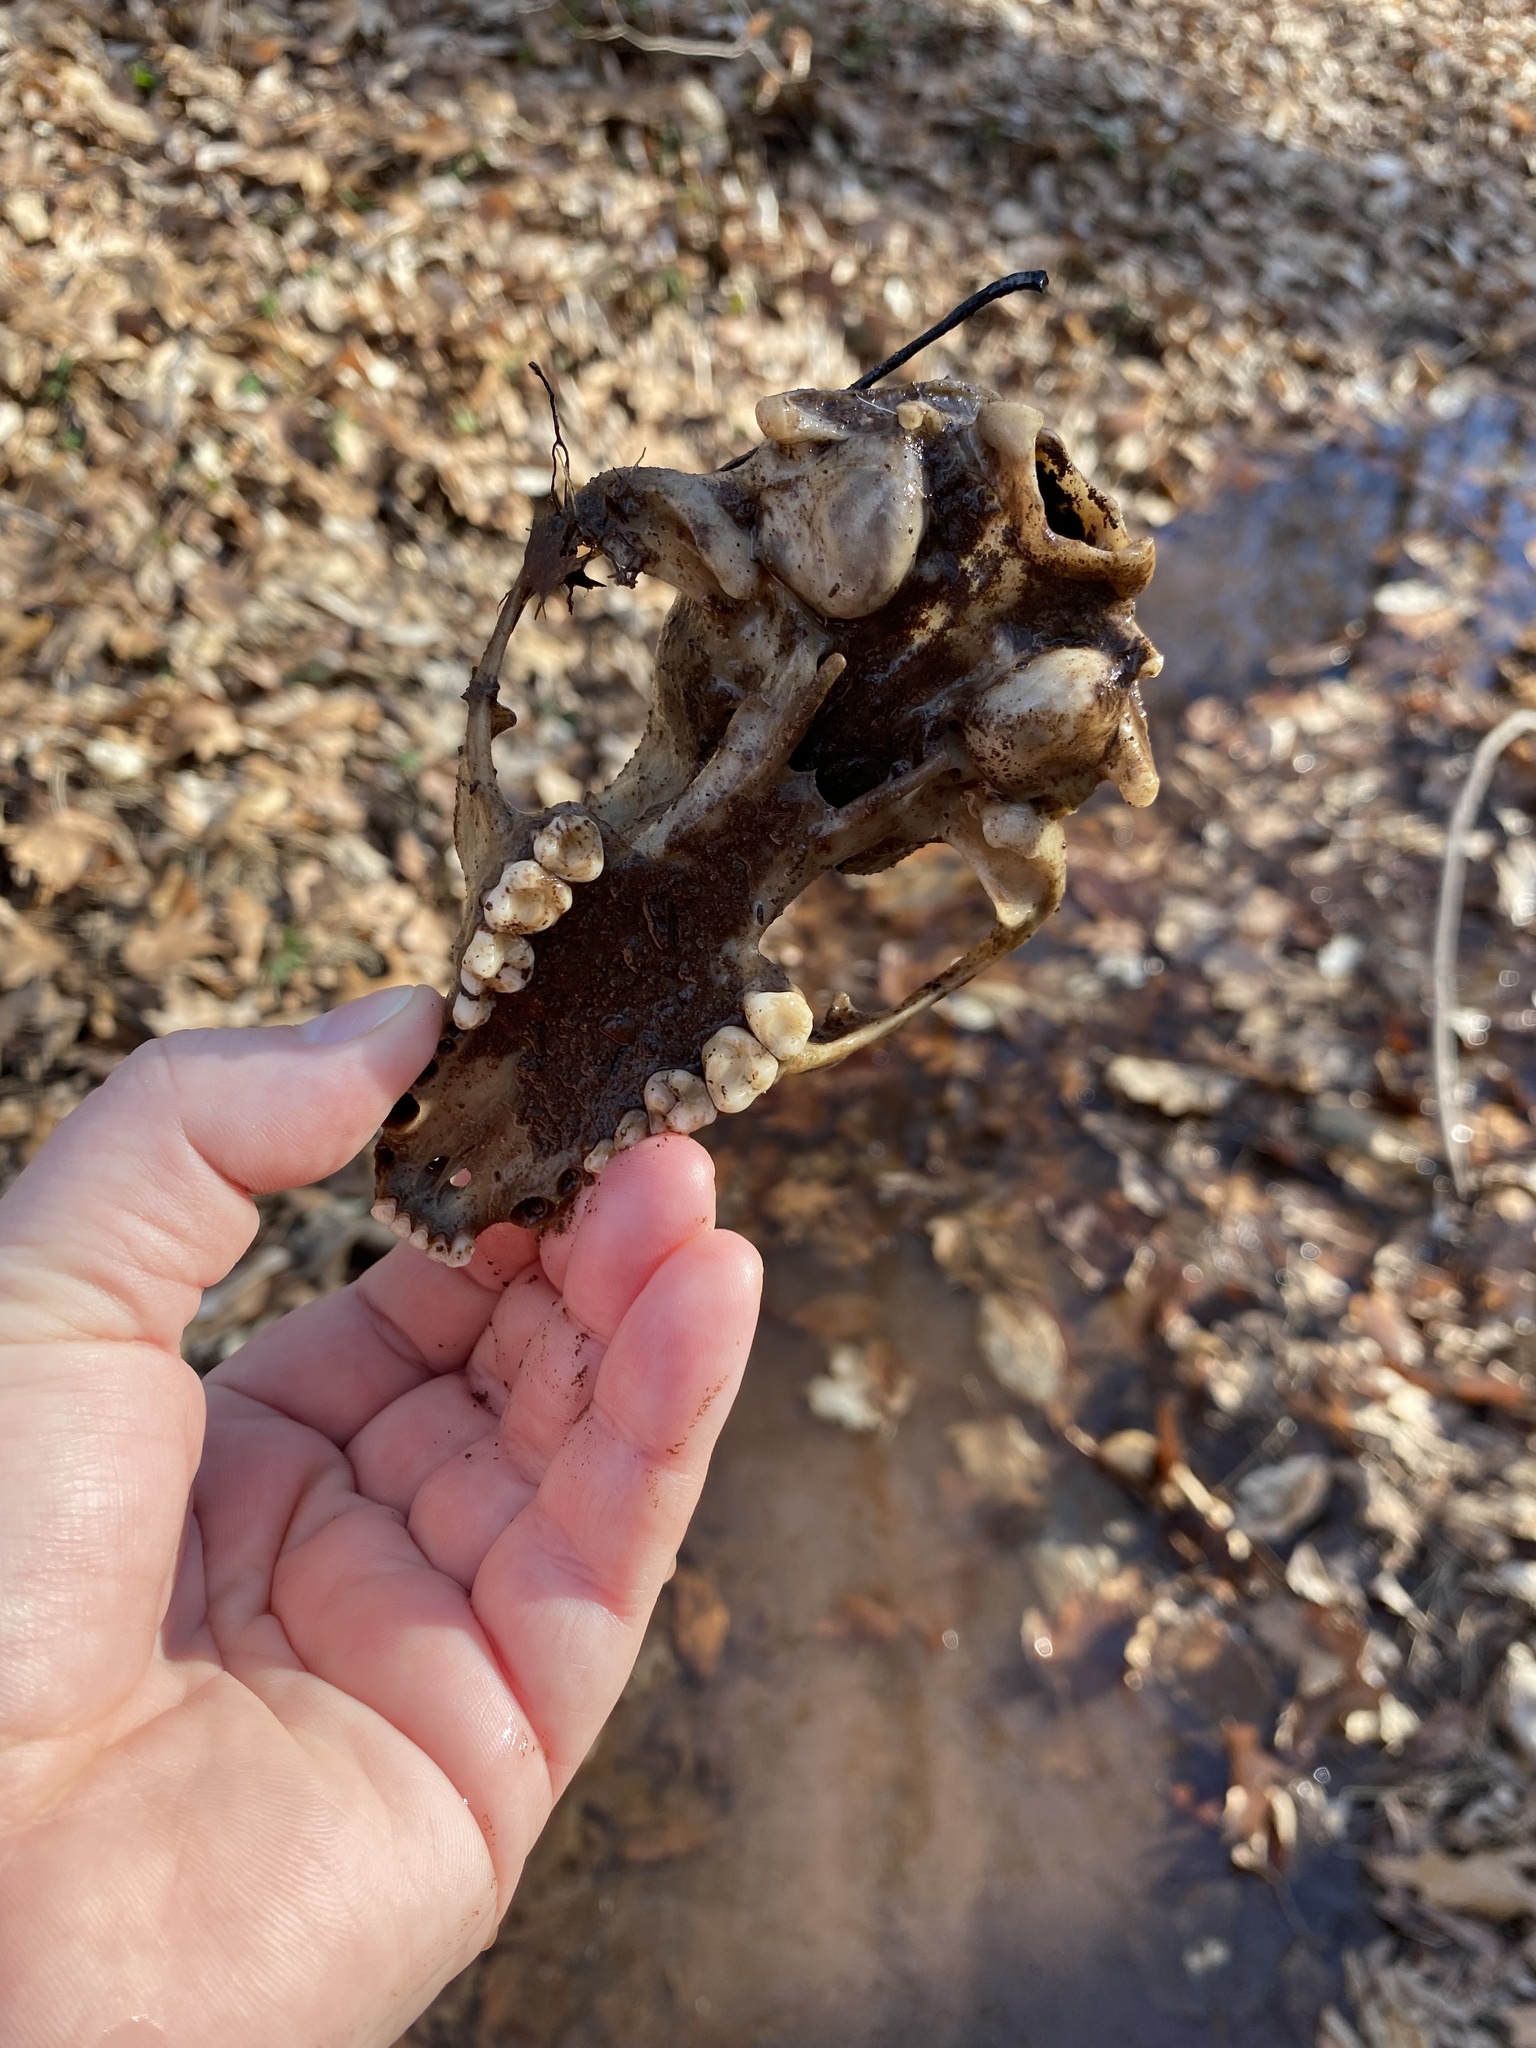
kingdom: Animalia
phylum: Chordata
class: Mammalia
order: Carnivora
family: Procyonidae
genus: Procyon
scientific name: Procyon lotor
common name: Raccoon
